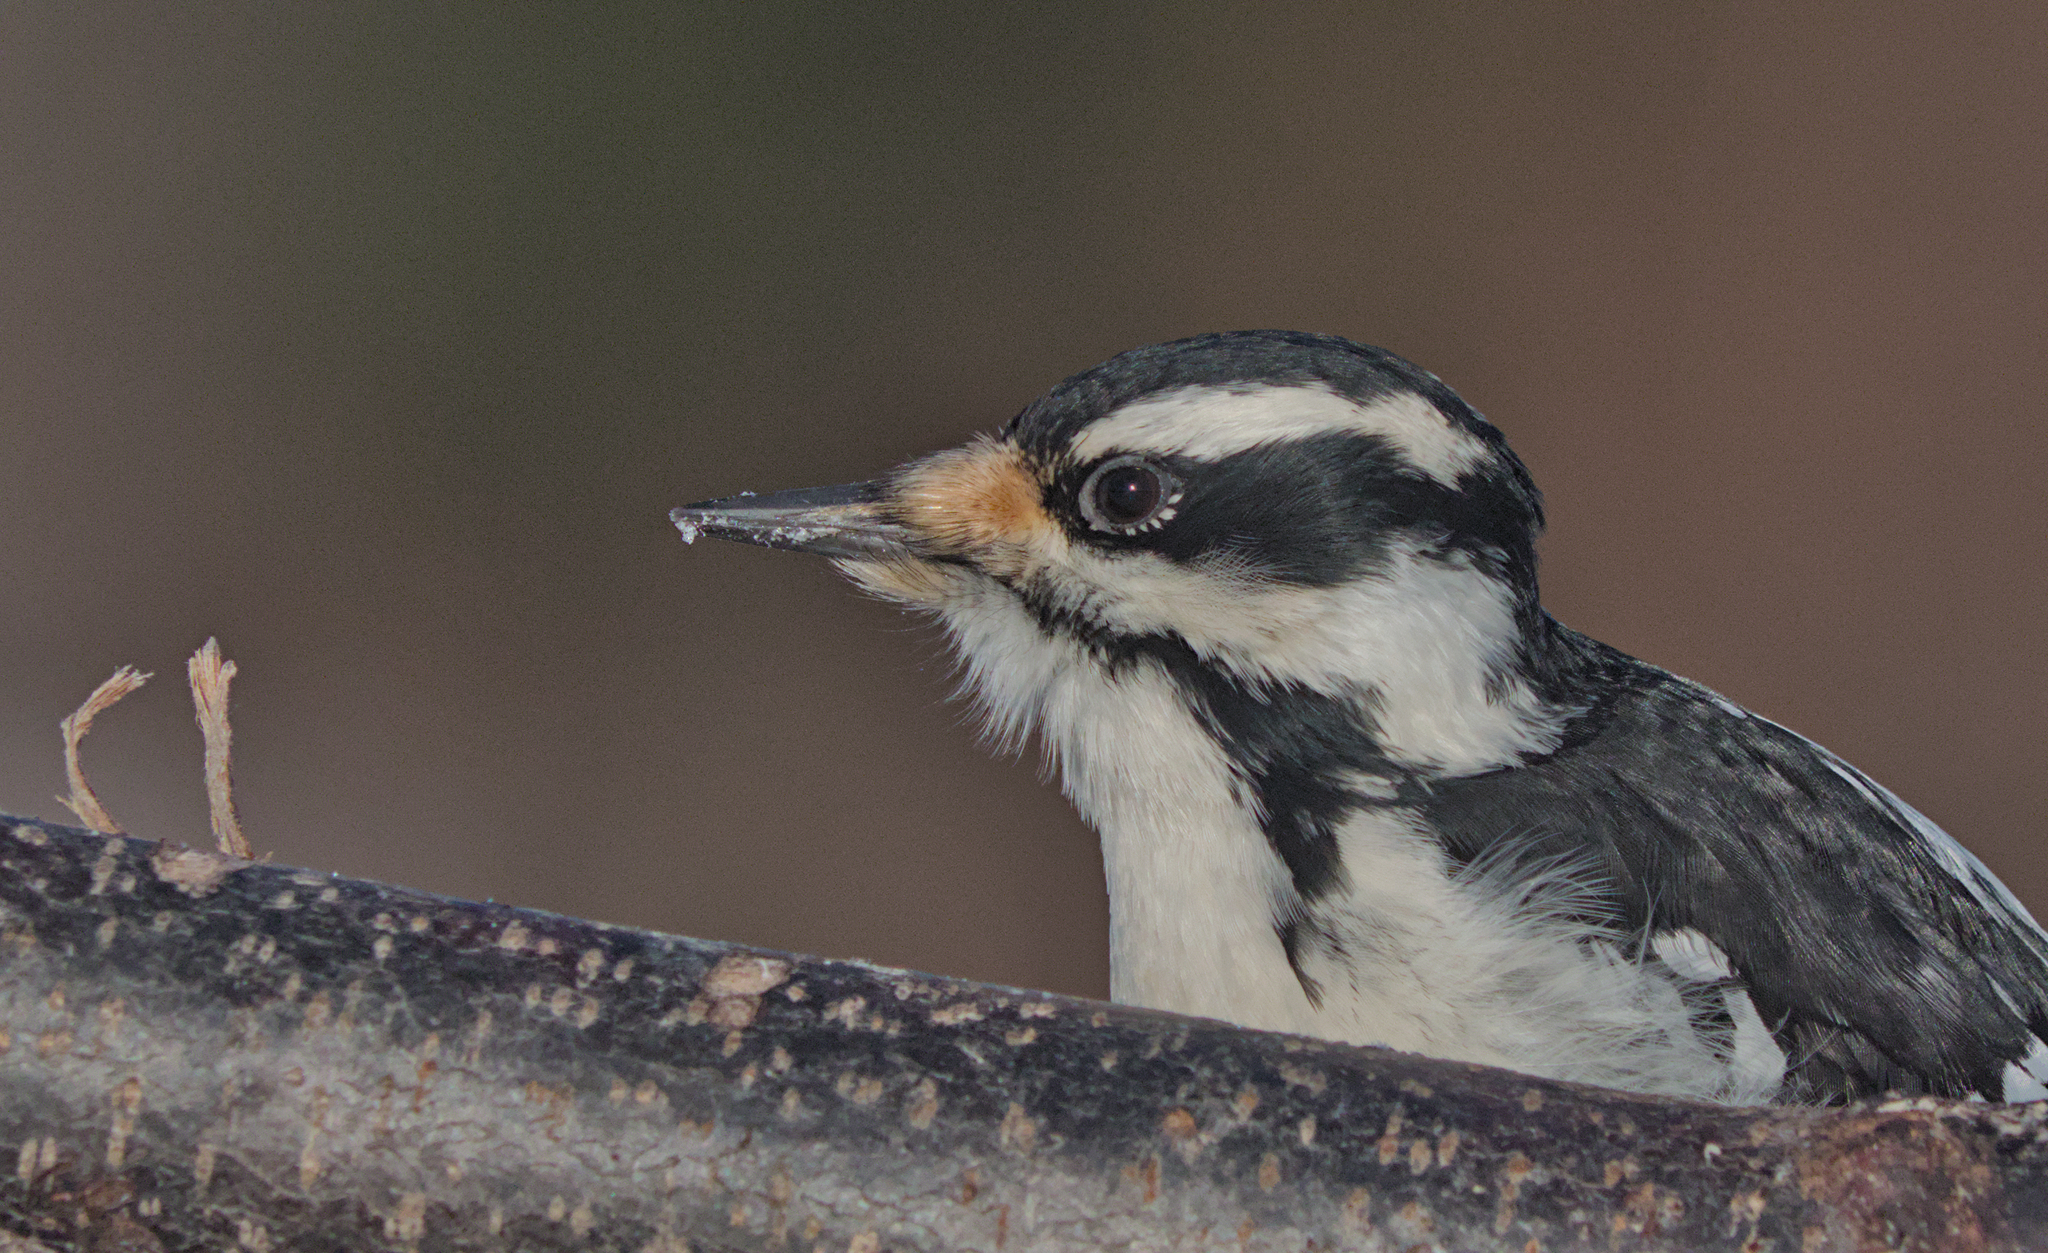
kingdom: Animalia
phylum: Chordata
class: Aves
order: Piciformes
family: Picidae
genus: Leuconotopicus
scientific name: Leuconotopicus villosus
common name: Hairy woodpecker
